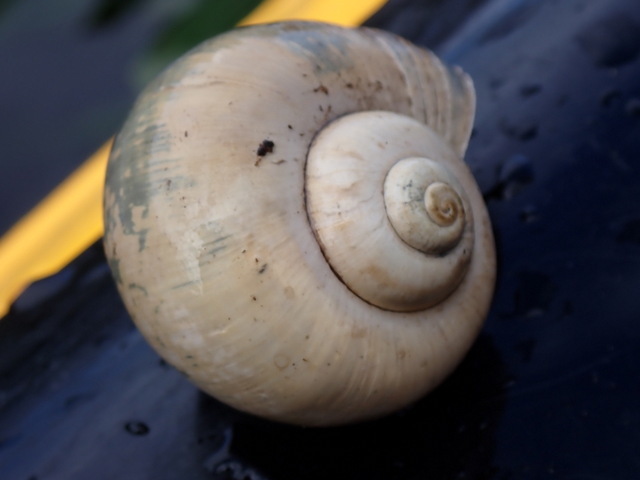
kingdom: Animalia
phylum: Mollusca
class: Gastropoda
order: Architaenioglossa
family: Ampullariidae
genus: Pomacea
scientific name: Pomacea paludosa
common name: Florida applesnail
